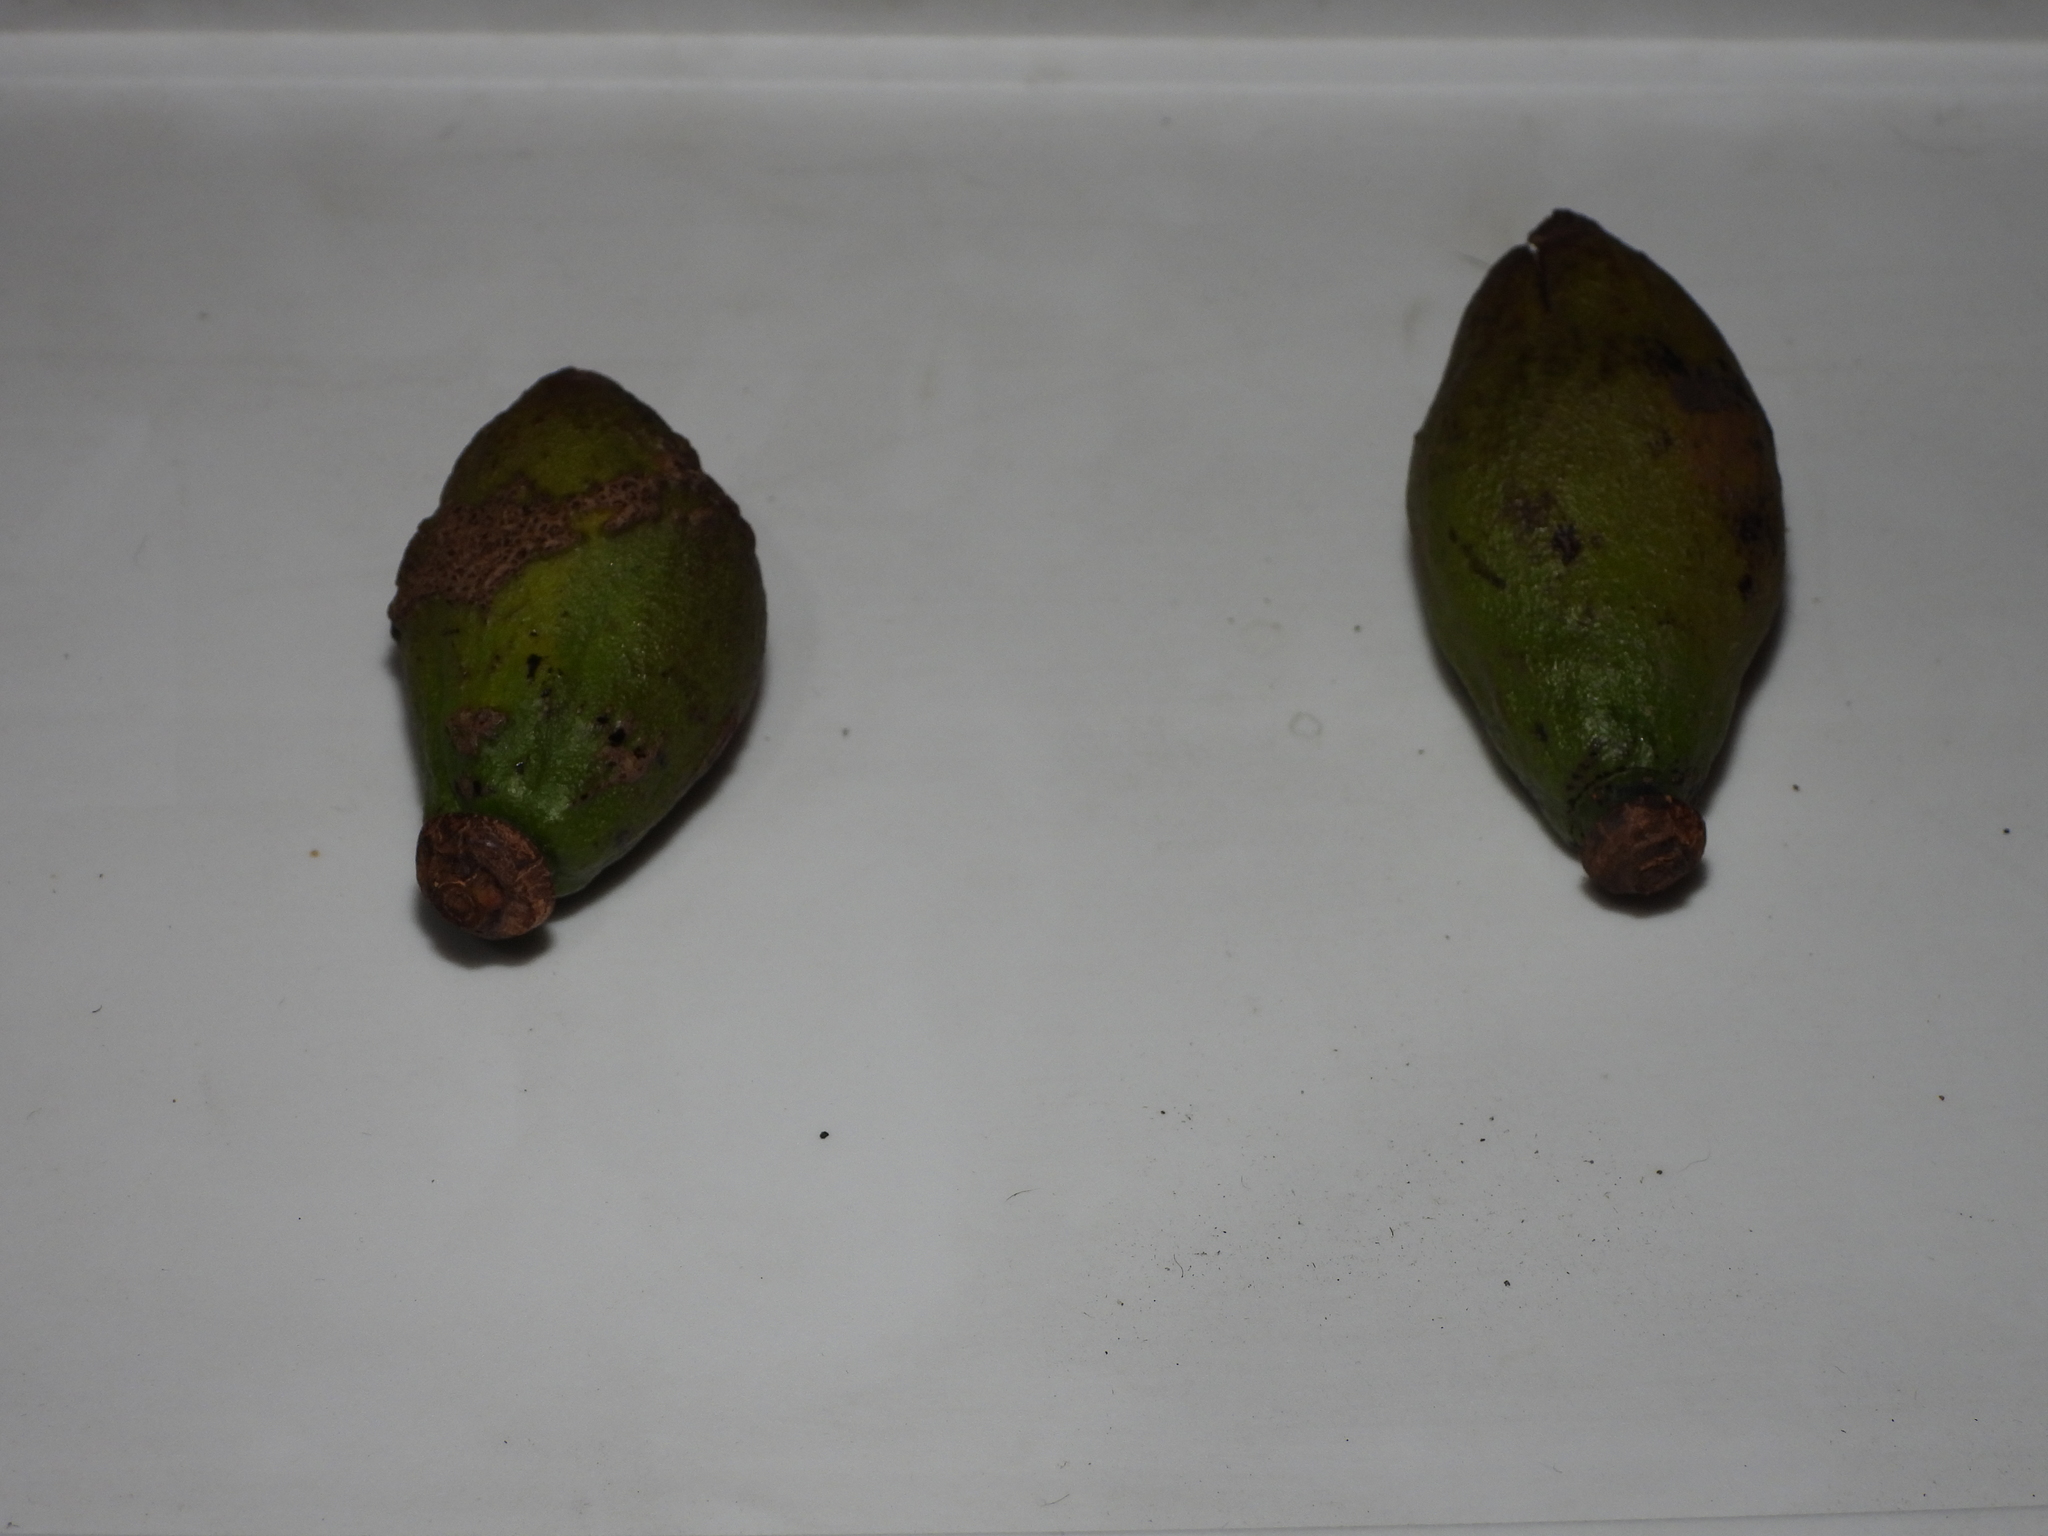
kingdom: Plantae
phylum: Tracheophyta
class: Magnoliopsida
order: Myrtales
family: Lythraceae
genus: Lafoensia
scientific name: Lafoensia punicifolia
